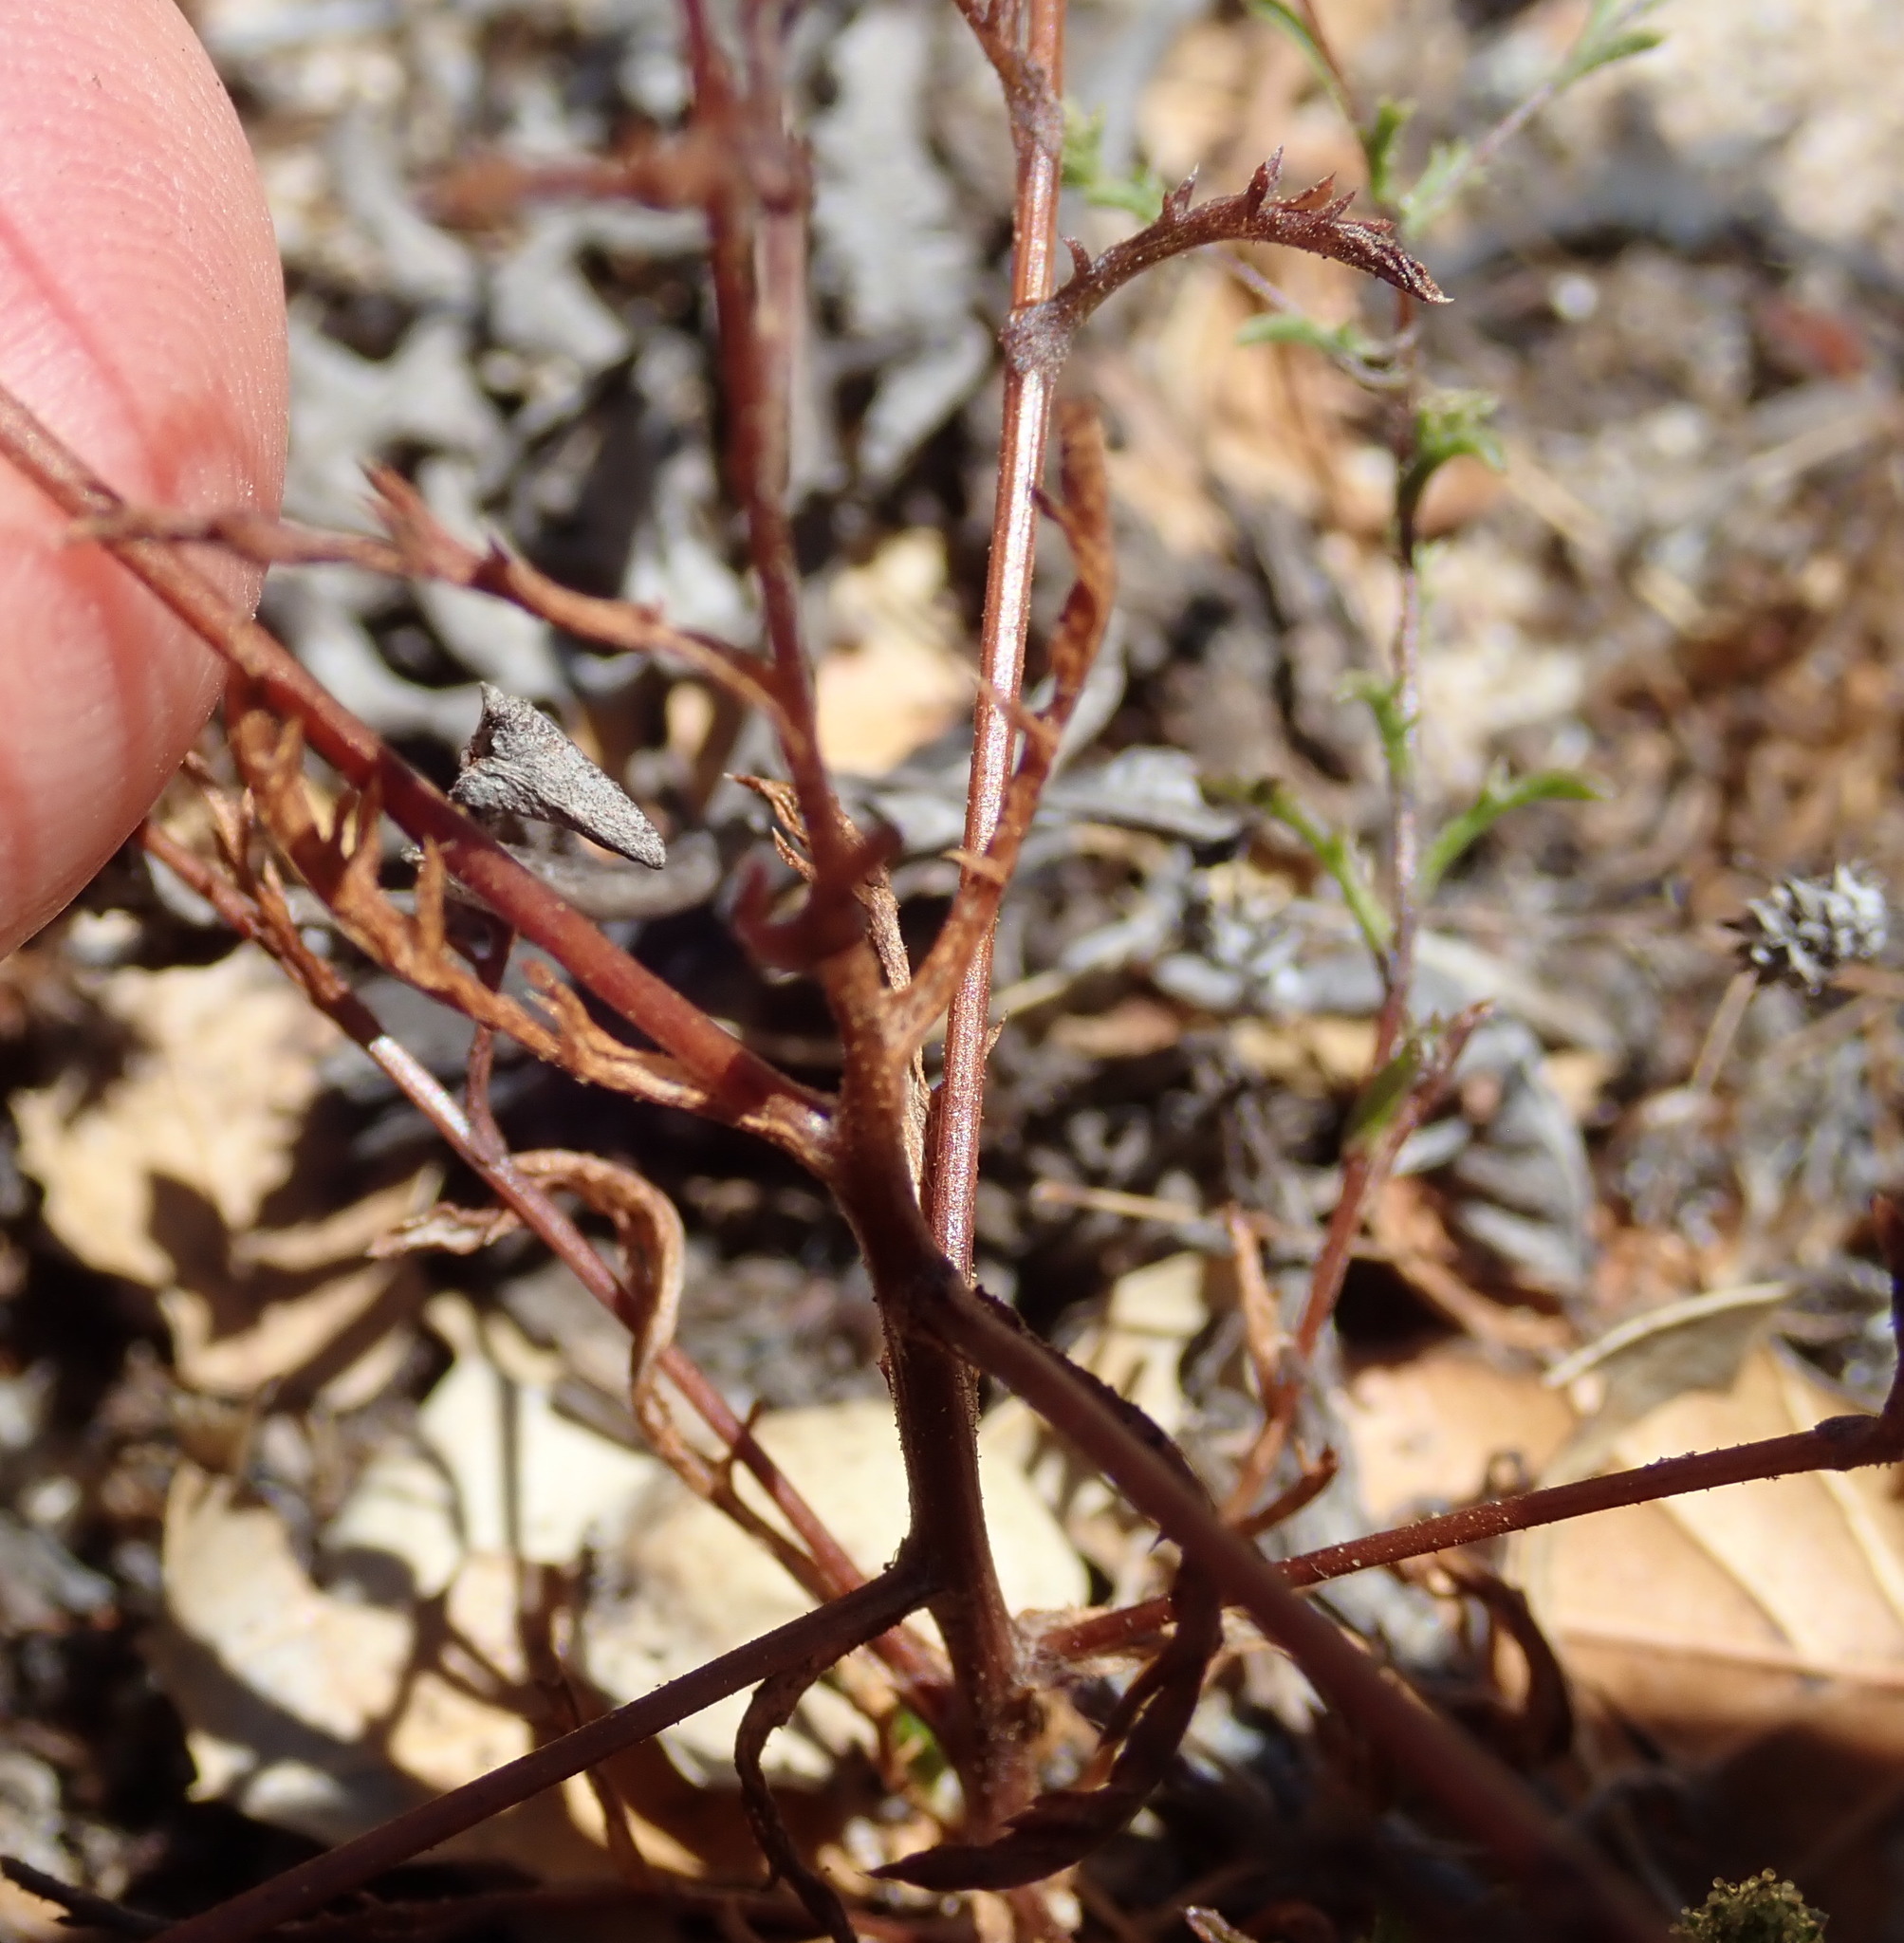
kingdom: Plantae
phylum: Tracheophyta
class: Magnoliopsida
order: Asterales
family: Asteraceae
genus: Lessingia
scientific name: Lessingia pectinata
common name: Valley lessingia
